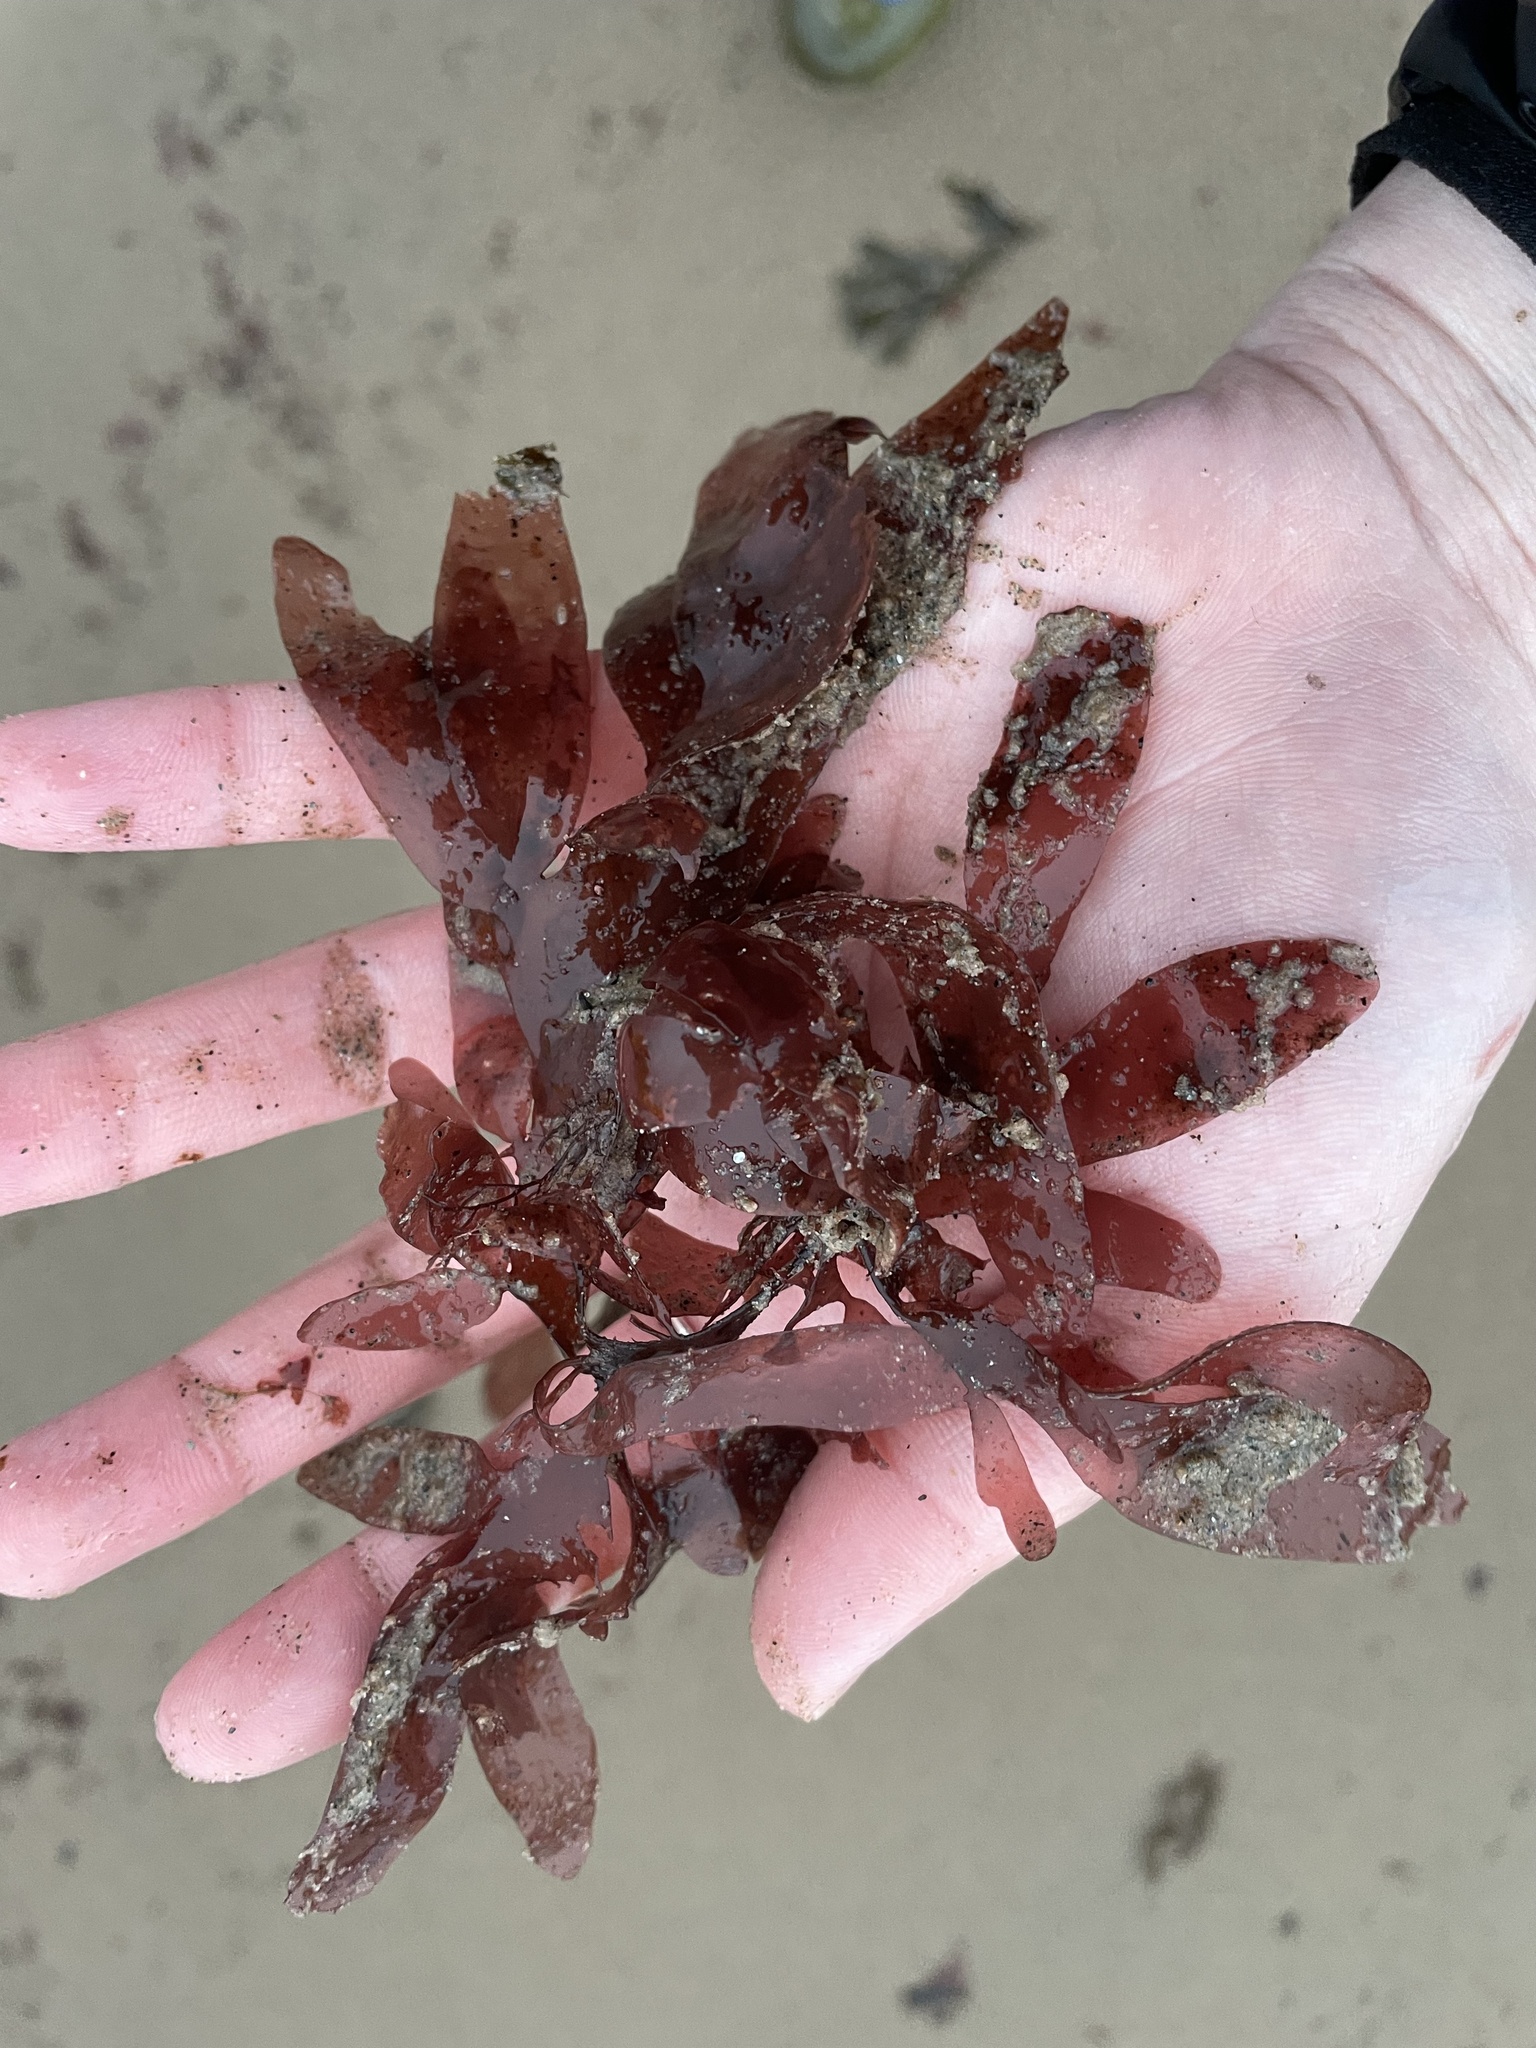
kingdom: Plantae
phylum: Rhodophyta
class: Florideophyceae
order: Palmariales
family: Palmariaceae
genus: Palmaria
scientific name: Palmaria palmata
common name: Dulse
